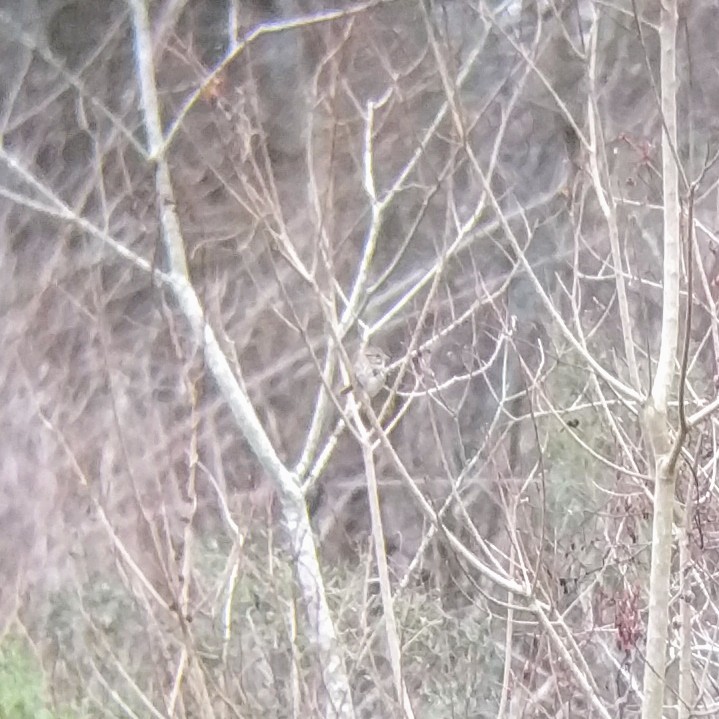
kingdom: Animalia
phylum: Chordata
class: Aves
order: Passeriformes
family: Passerellidae
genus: Melospiza
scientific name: Melospiza melodia
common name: Song sparrow
